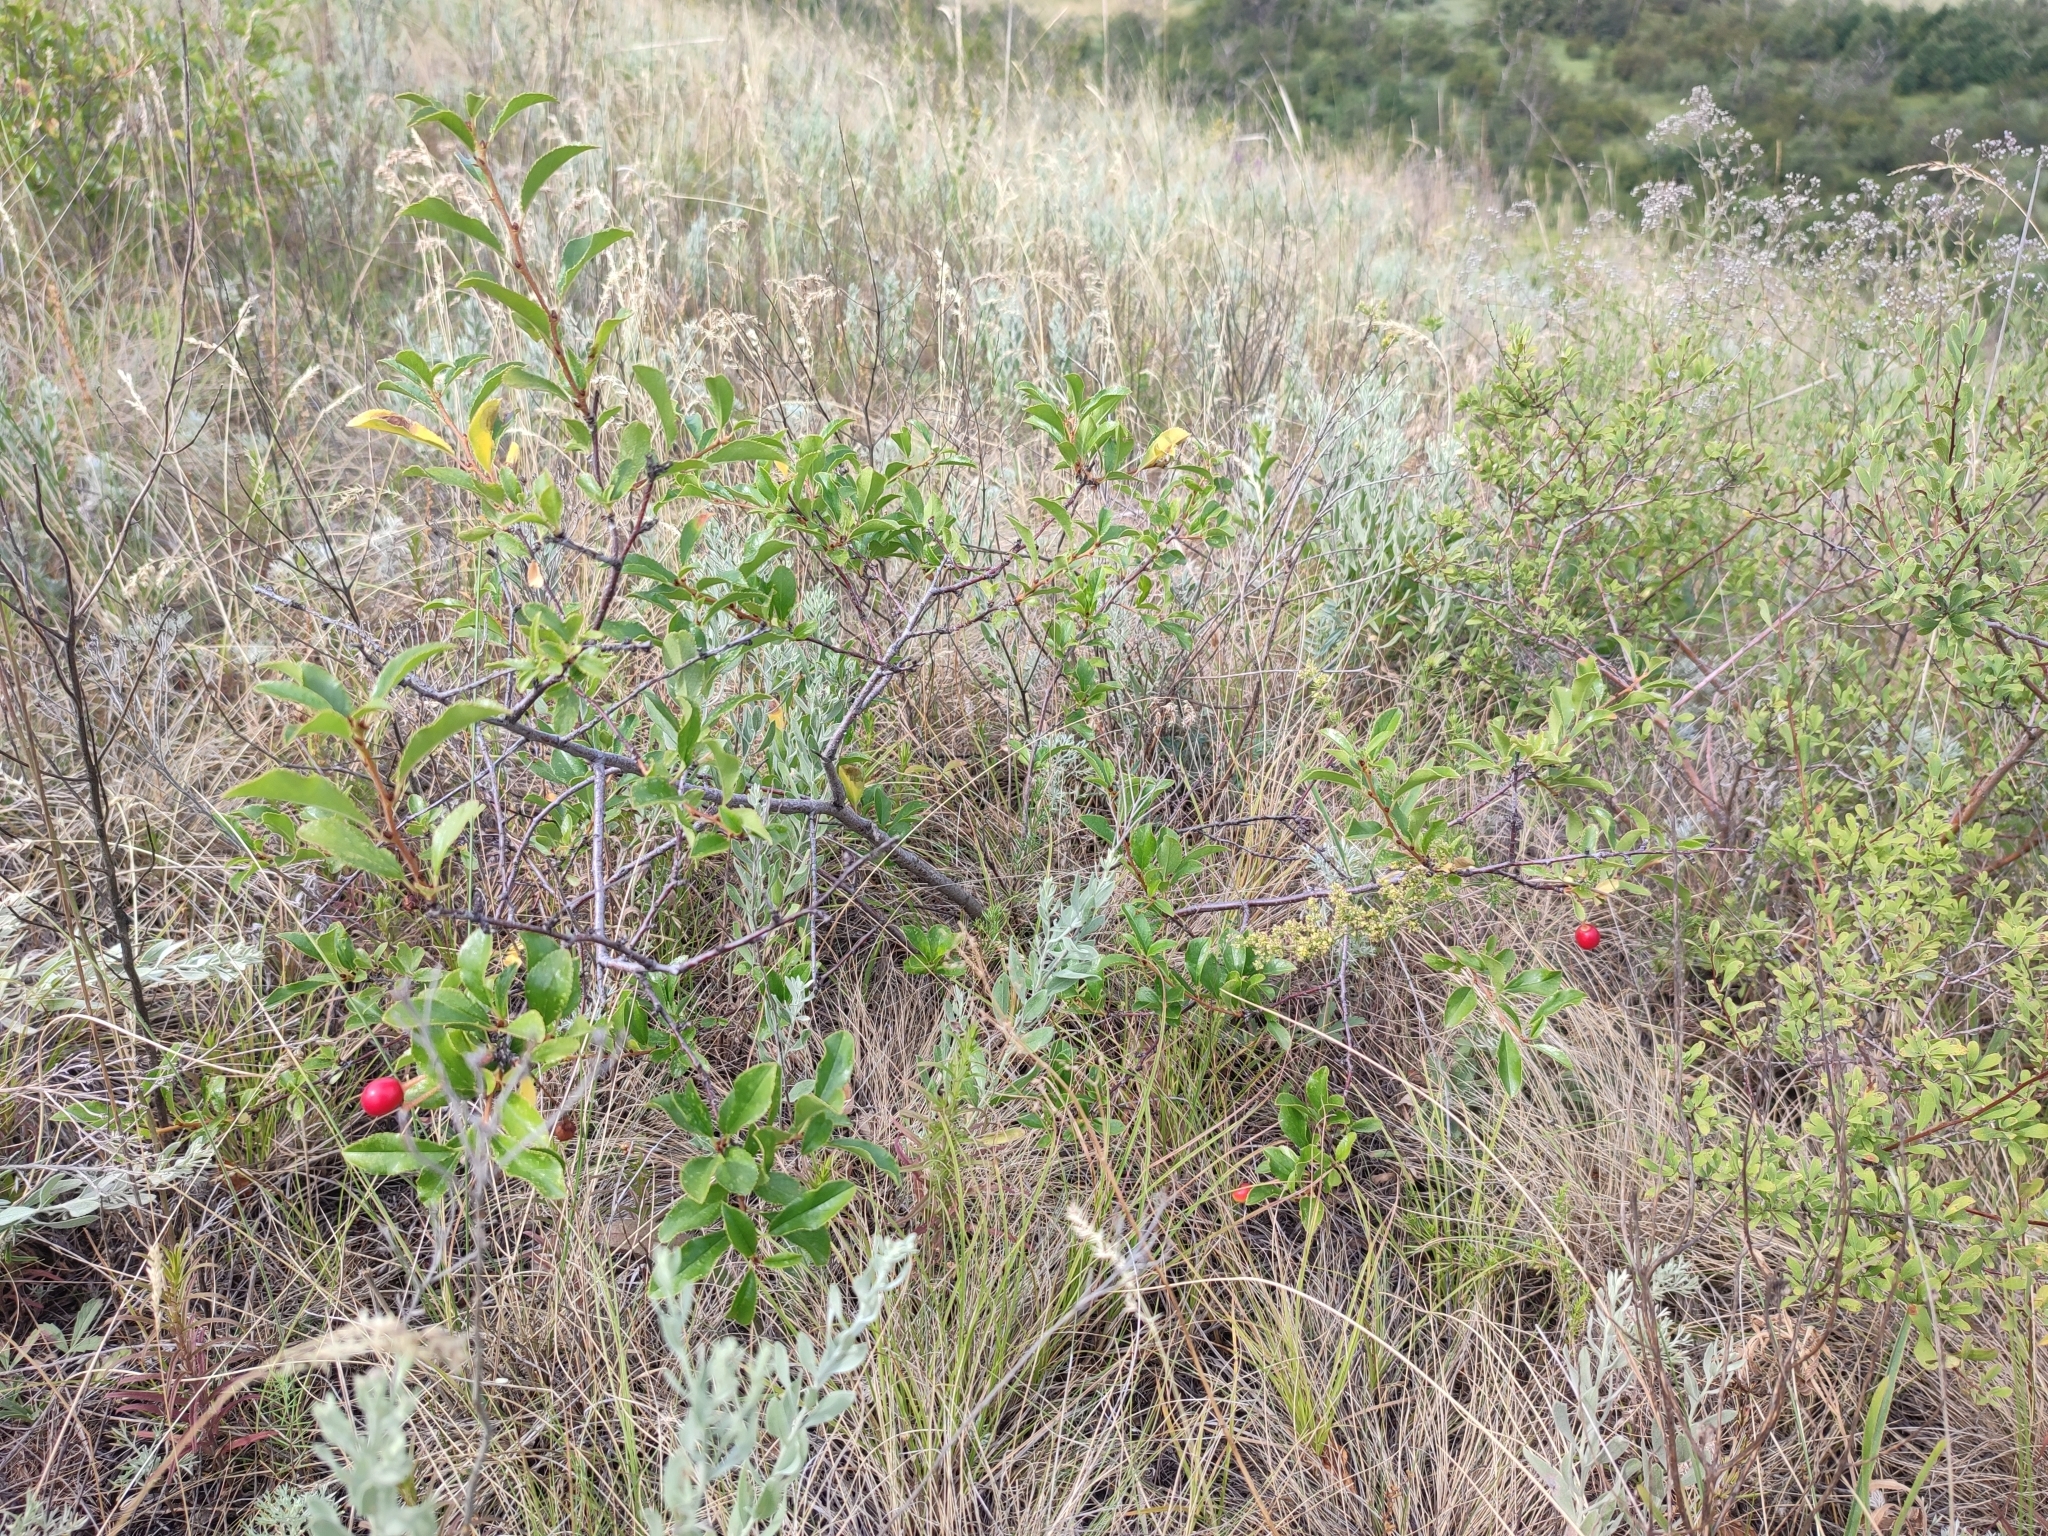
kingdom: Plantae
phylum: Tracheophyta
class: Magnoliopsida
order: Rosales
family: Rosaceae
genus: Prunus
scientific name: Prunus fruticosa
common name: European dwarf cherry
